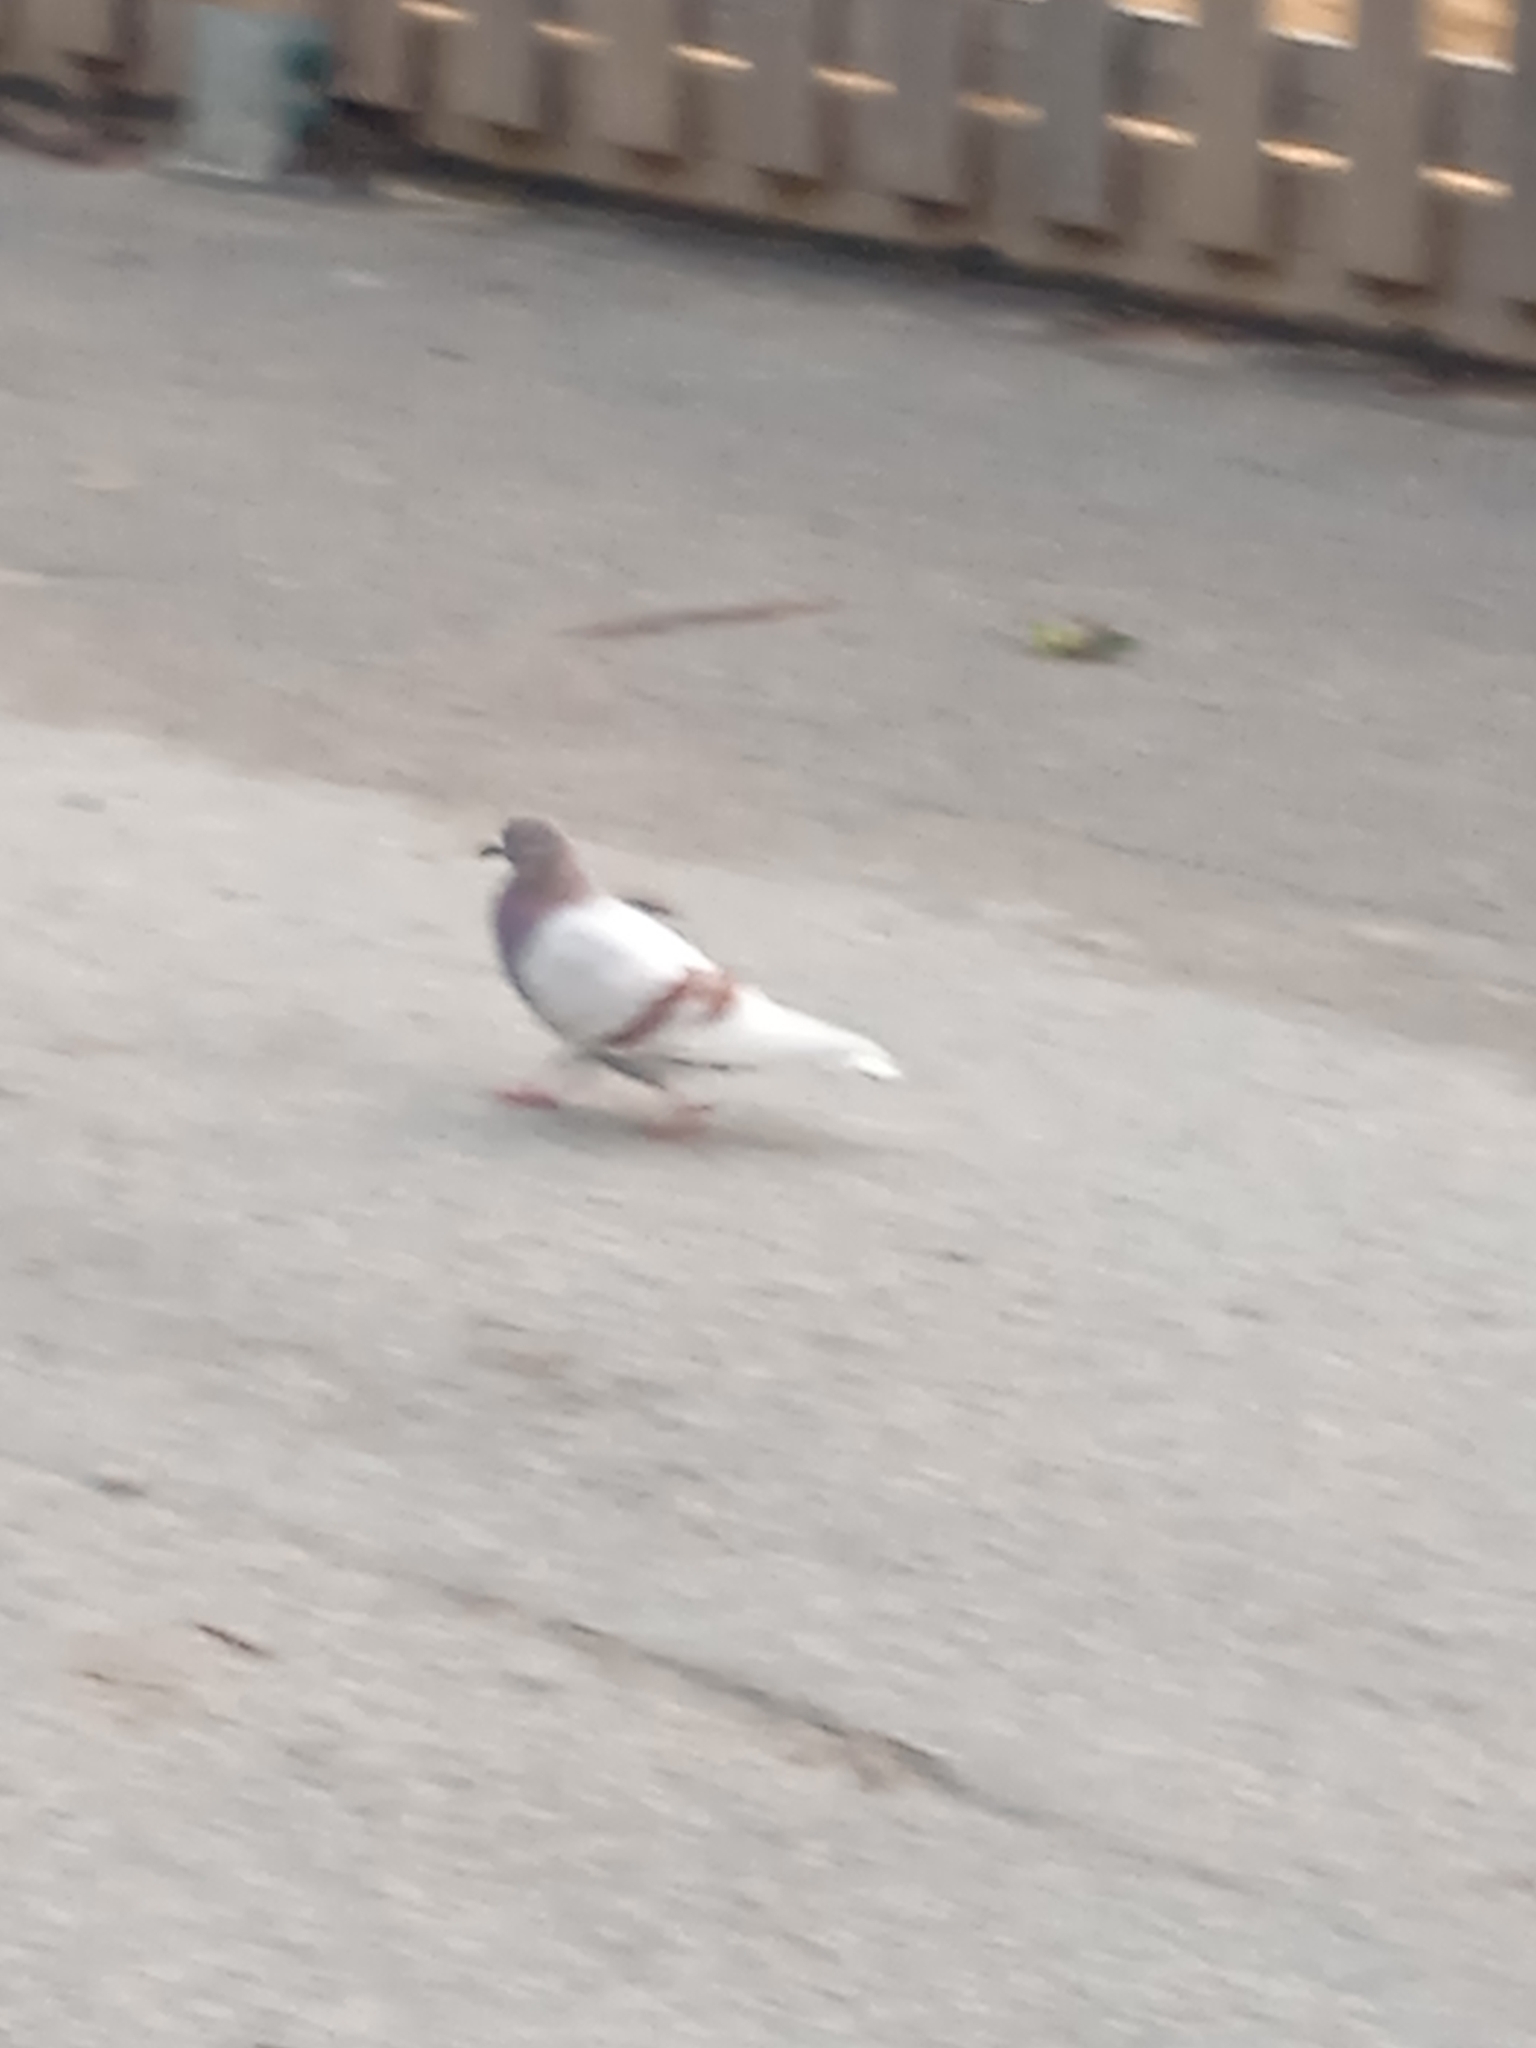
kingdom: Animalia
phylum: Chordata
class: Aves
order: Columbiformes
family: Columbidae
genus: Columba
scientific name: Columba livia
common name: Rock pigeon
